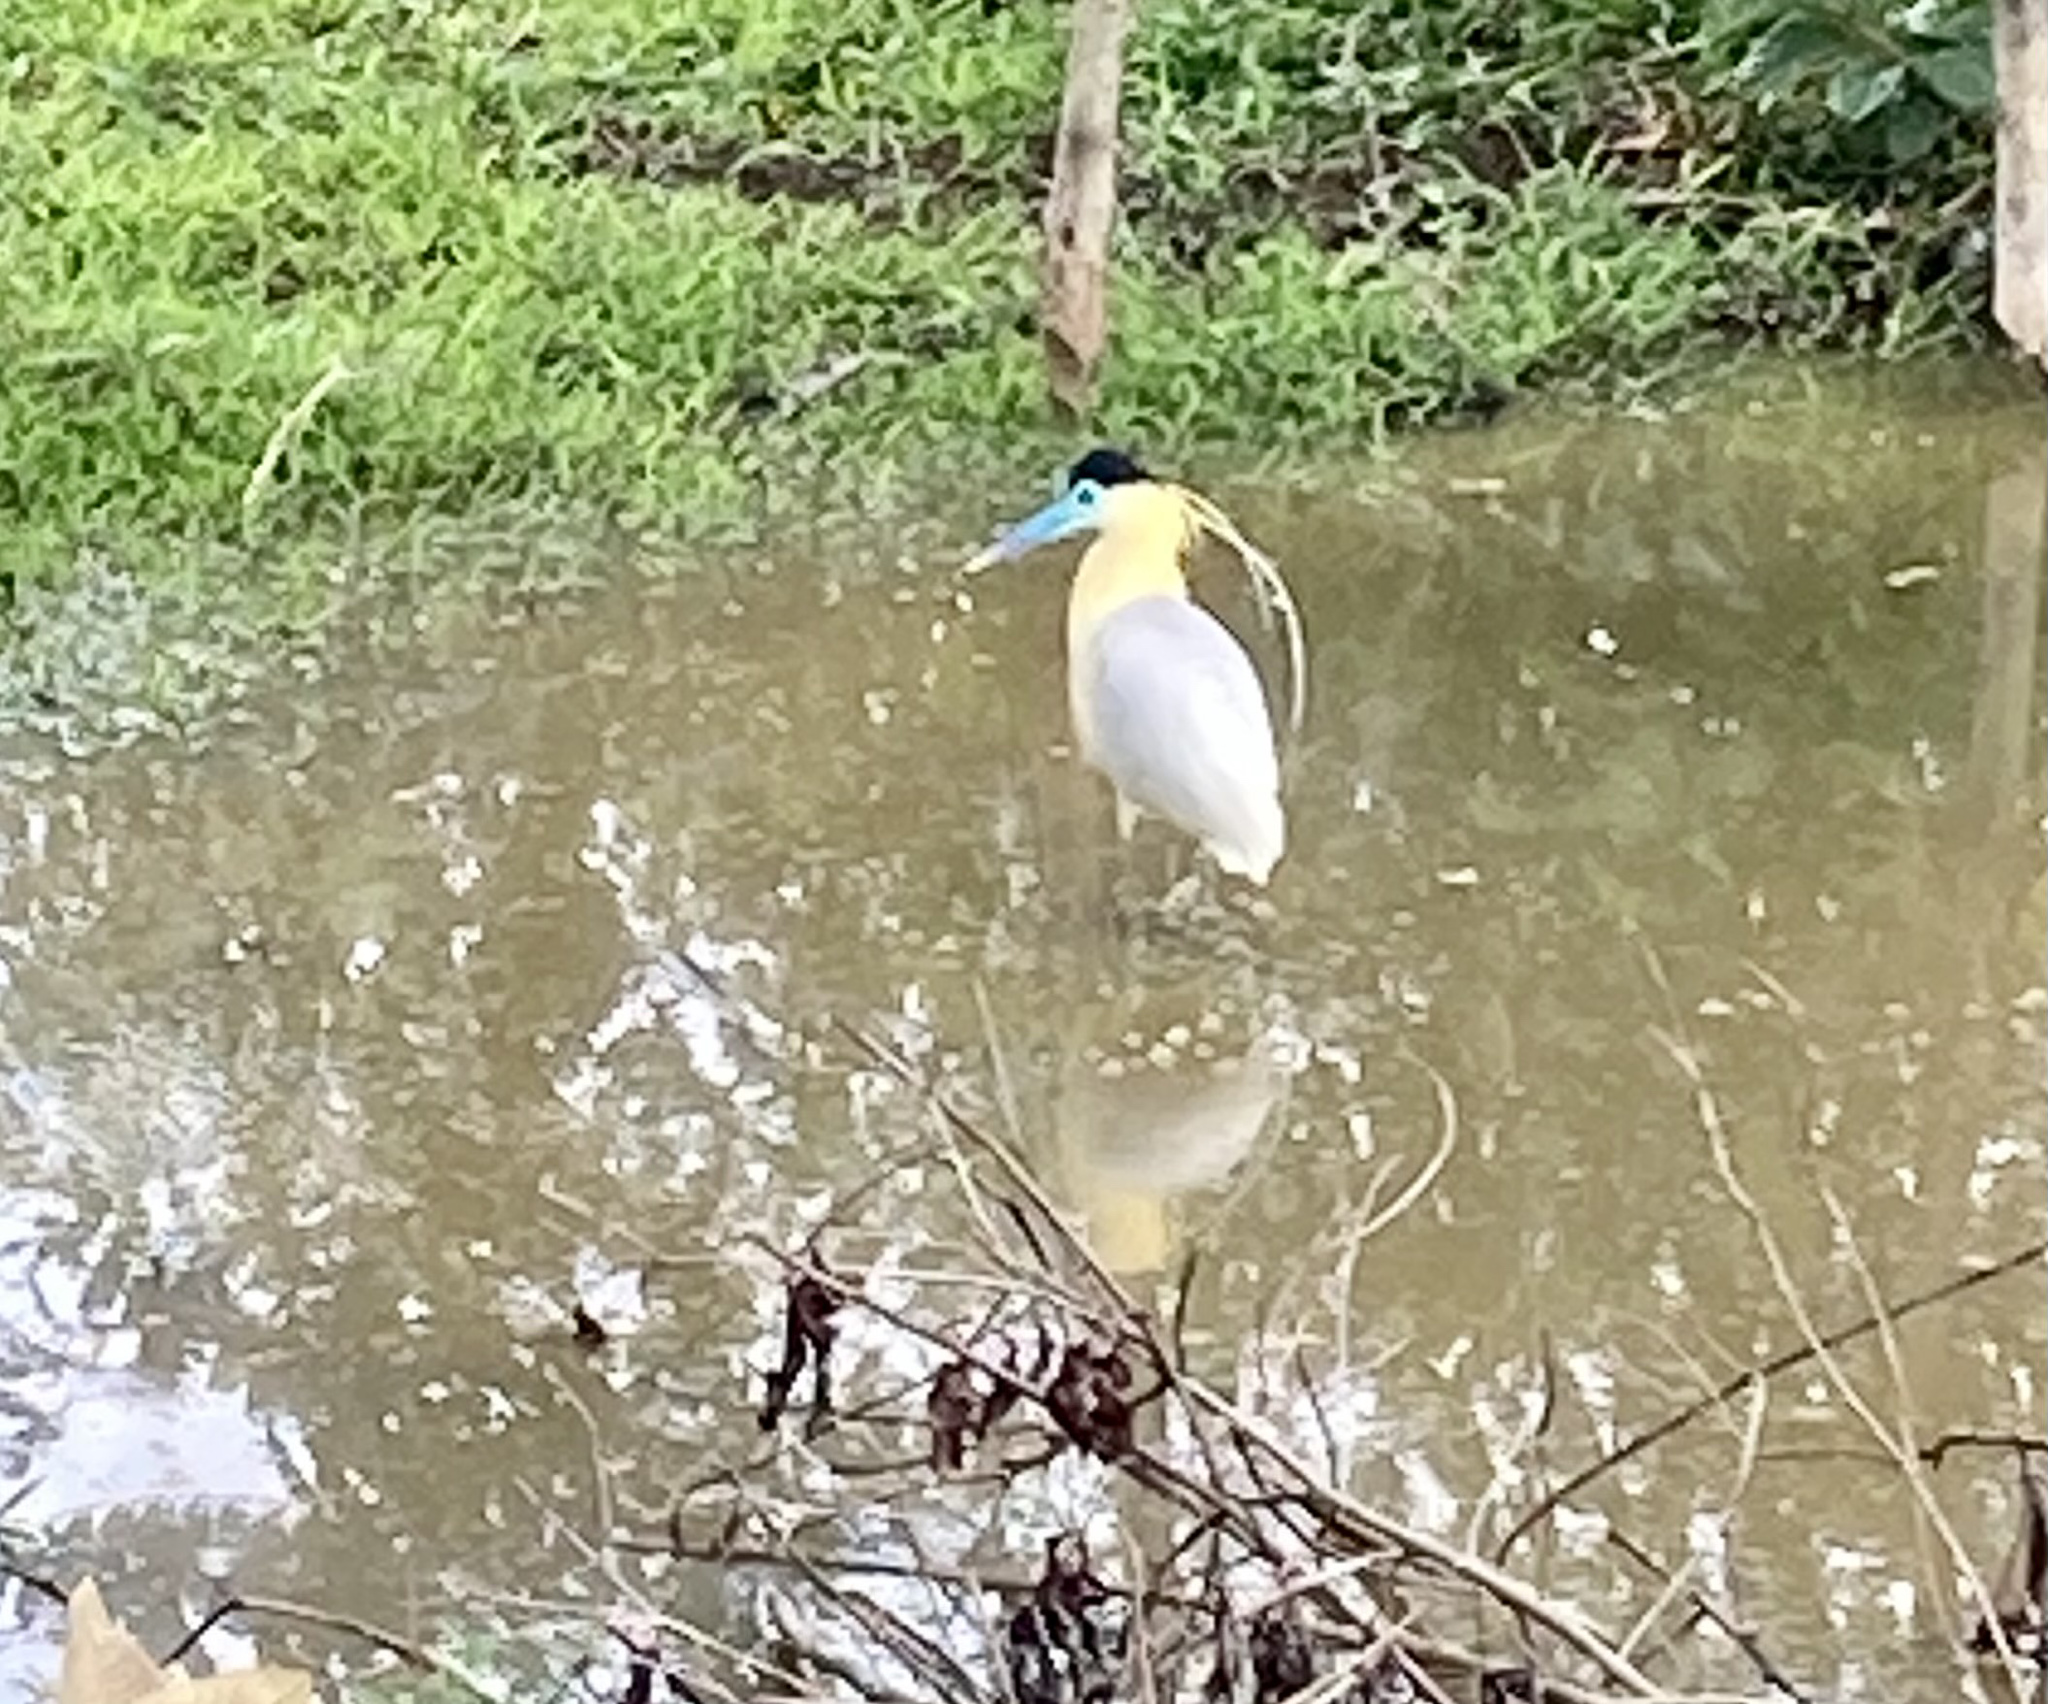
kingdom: Animalia
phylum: Chordata
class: Aves
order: Pelecaniformes
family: Ardeidae
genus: Pilherodius
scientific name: Pilherodius pileatus
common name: Capped heron
